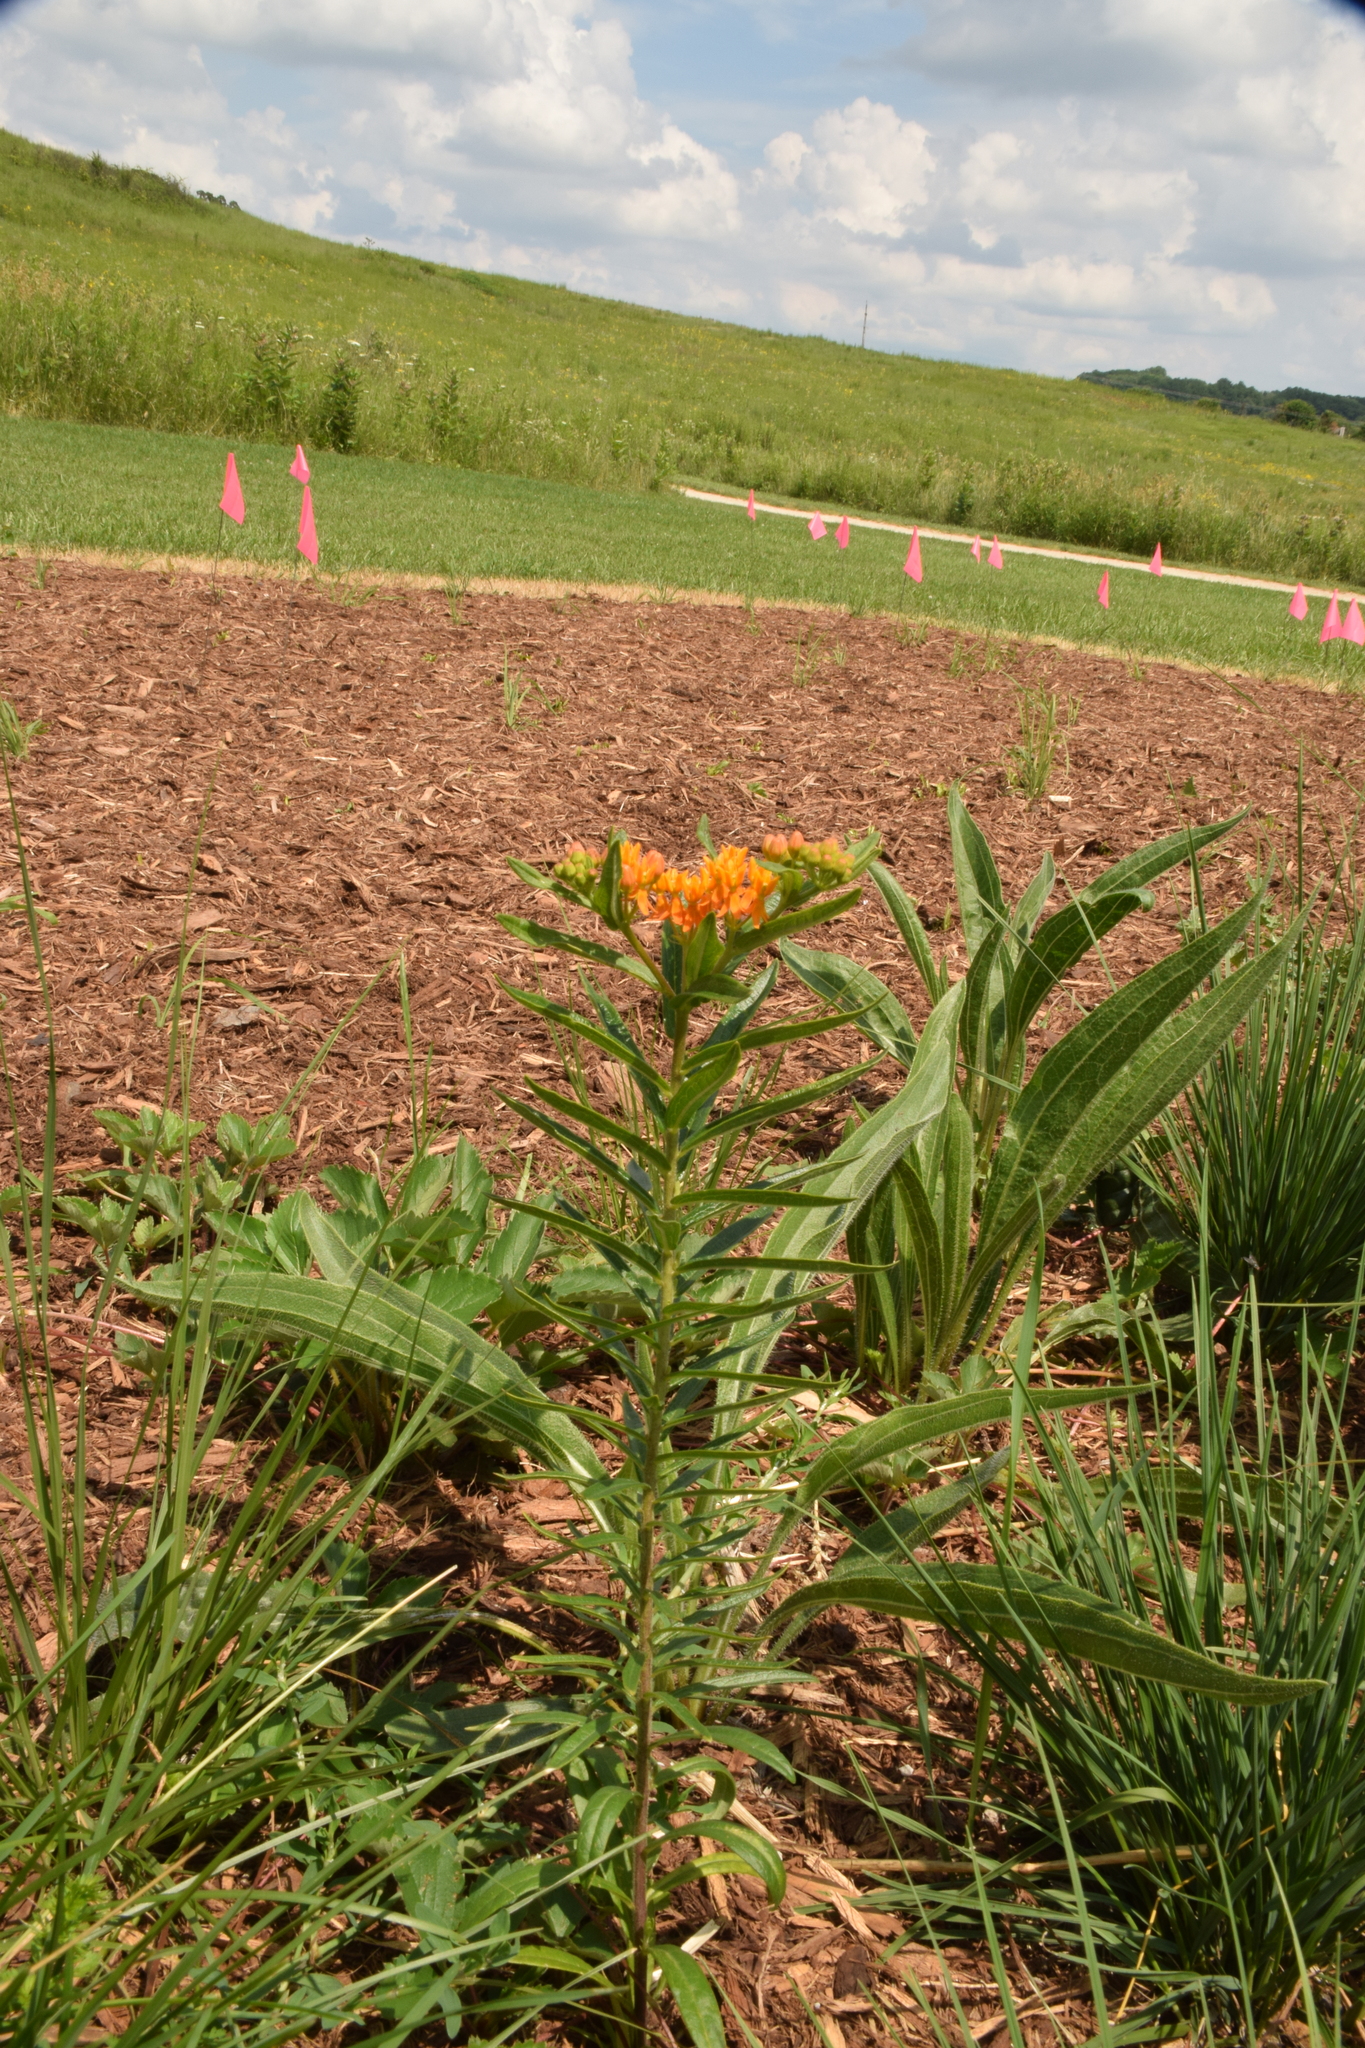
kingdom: Plantae
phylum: Tracheophyta
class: Magnoliopsida
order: Gentianales
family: Apocynaceae
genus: Asclepias
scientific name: Asclepias tuberosa
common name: Butterfly milkweed
